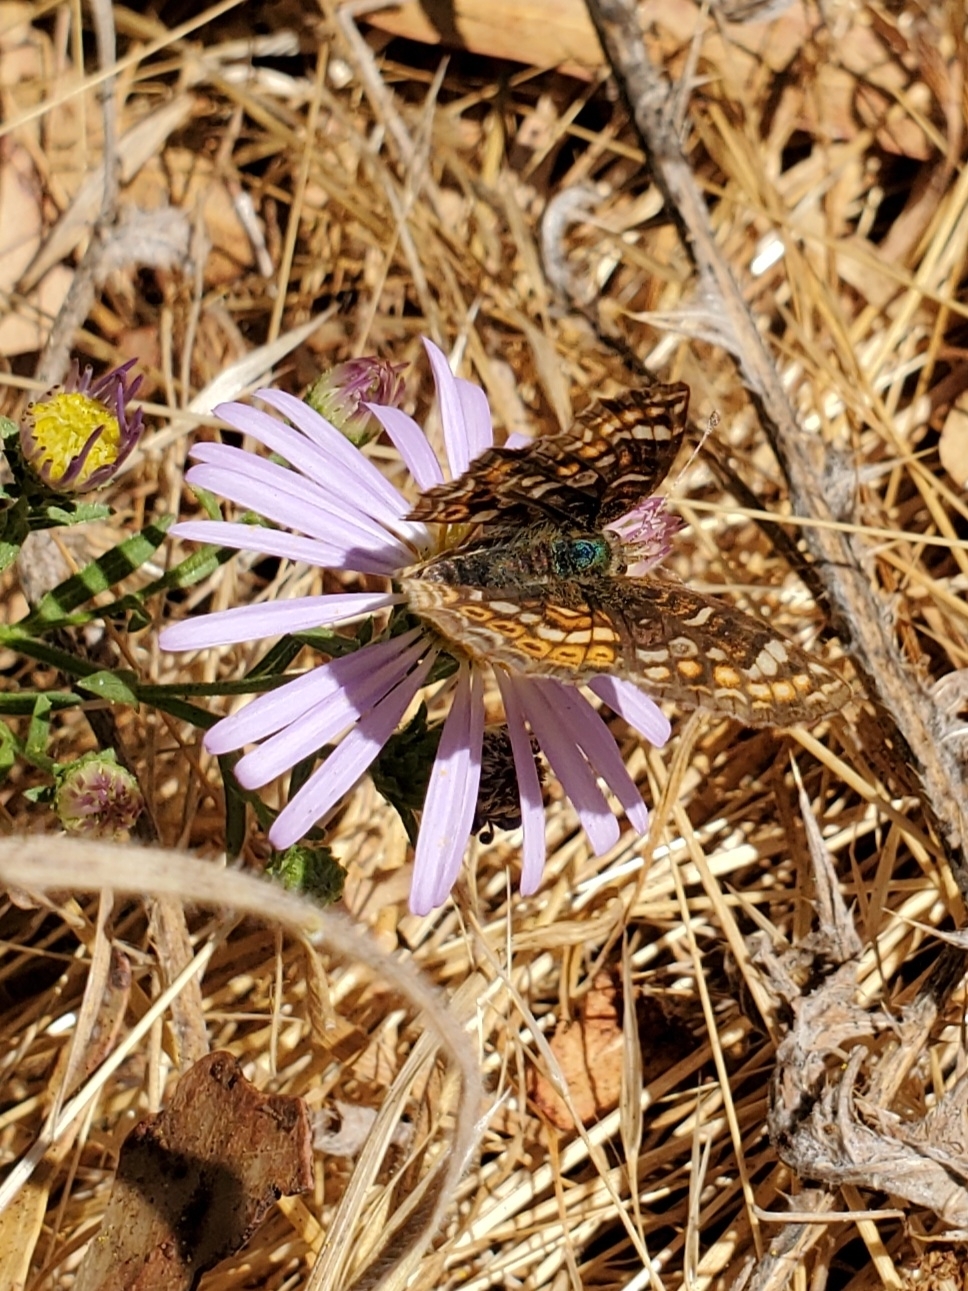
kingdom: Animalia
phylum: Arthropoda
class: Insecta
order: Lepidoptera
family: Nymphalidae
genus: Phyciodes
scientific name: Phyciodes tharos
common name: Pearl crescent
